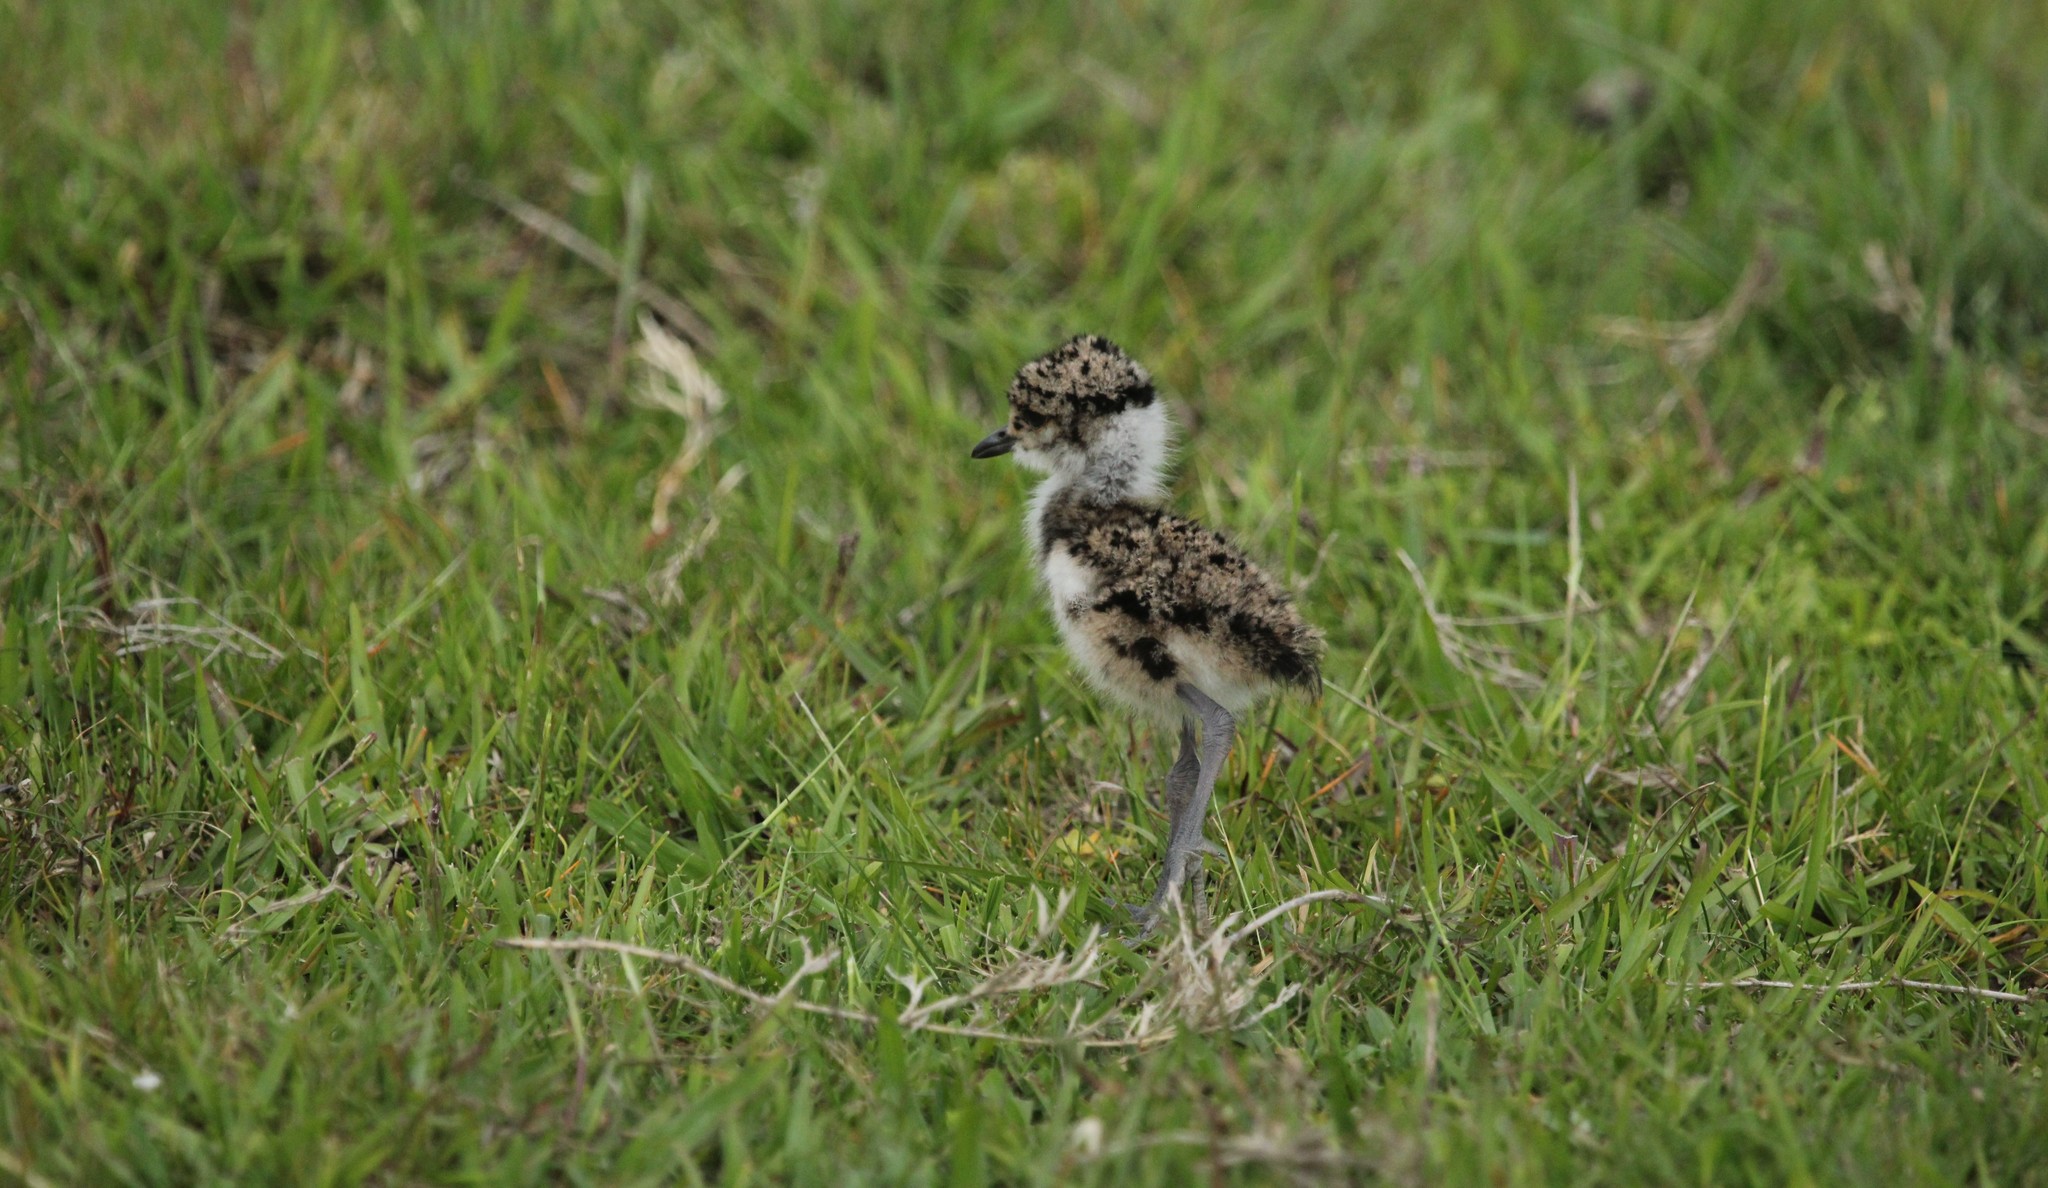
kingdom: Animalia
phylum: Chordata
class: Aves
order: Charadriiformes
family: Charadriidae
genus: Vanellus
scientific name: Vanellus chilensis
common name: Southern lapwing
